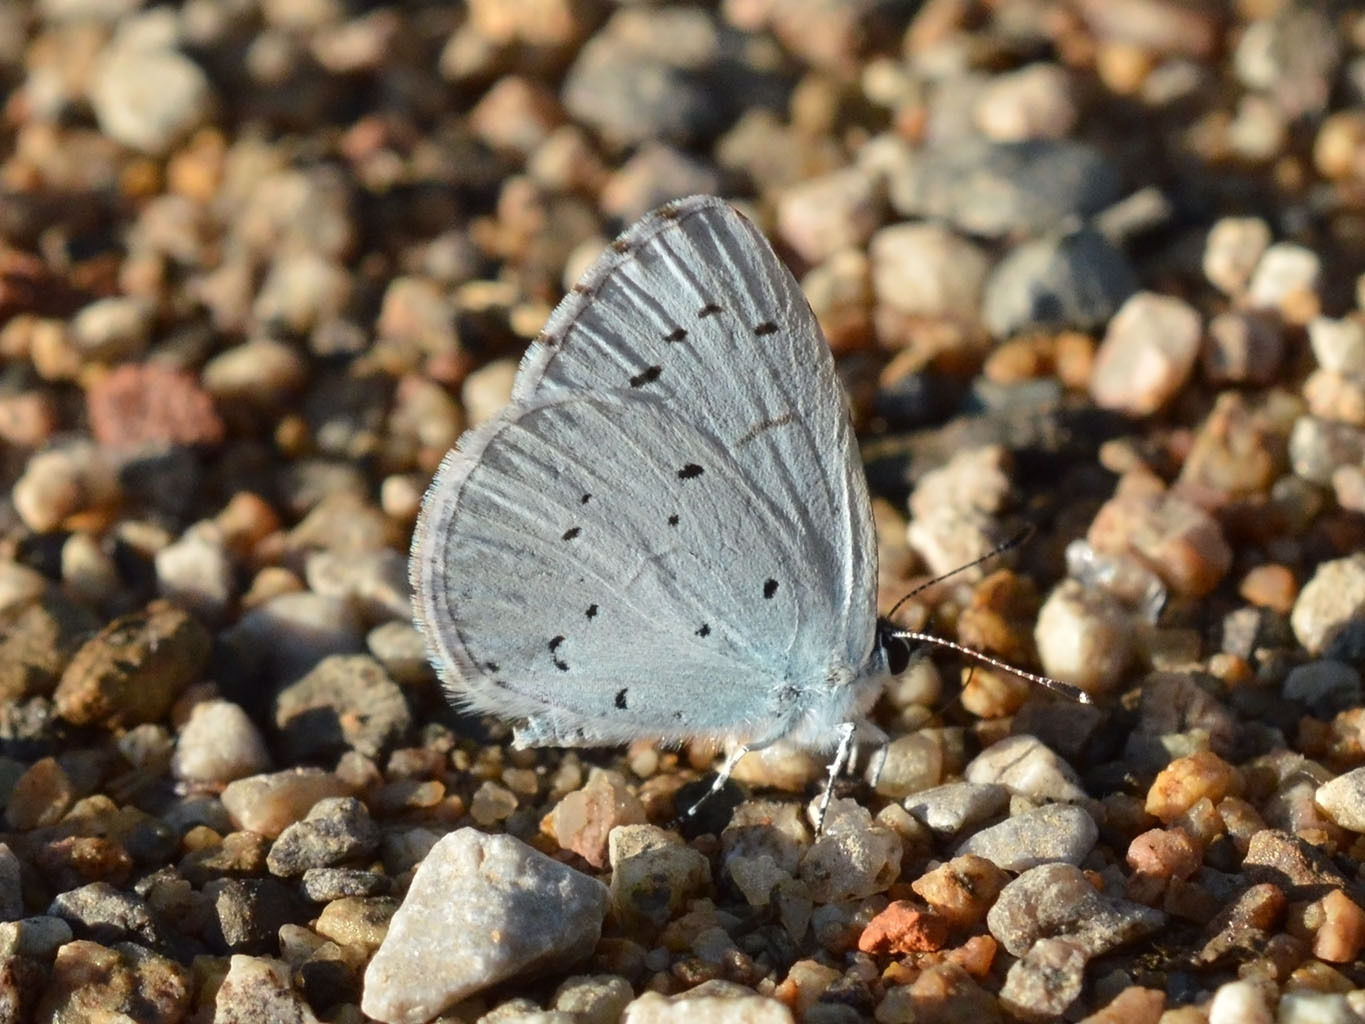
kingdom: Animalia
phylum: Arthropoda
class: Insecta
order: Lepidoptera
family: Lycaenidae
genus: Celastrina
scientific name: Celastrina argiolus
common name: Holly blue
